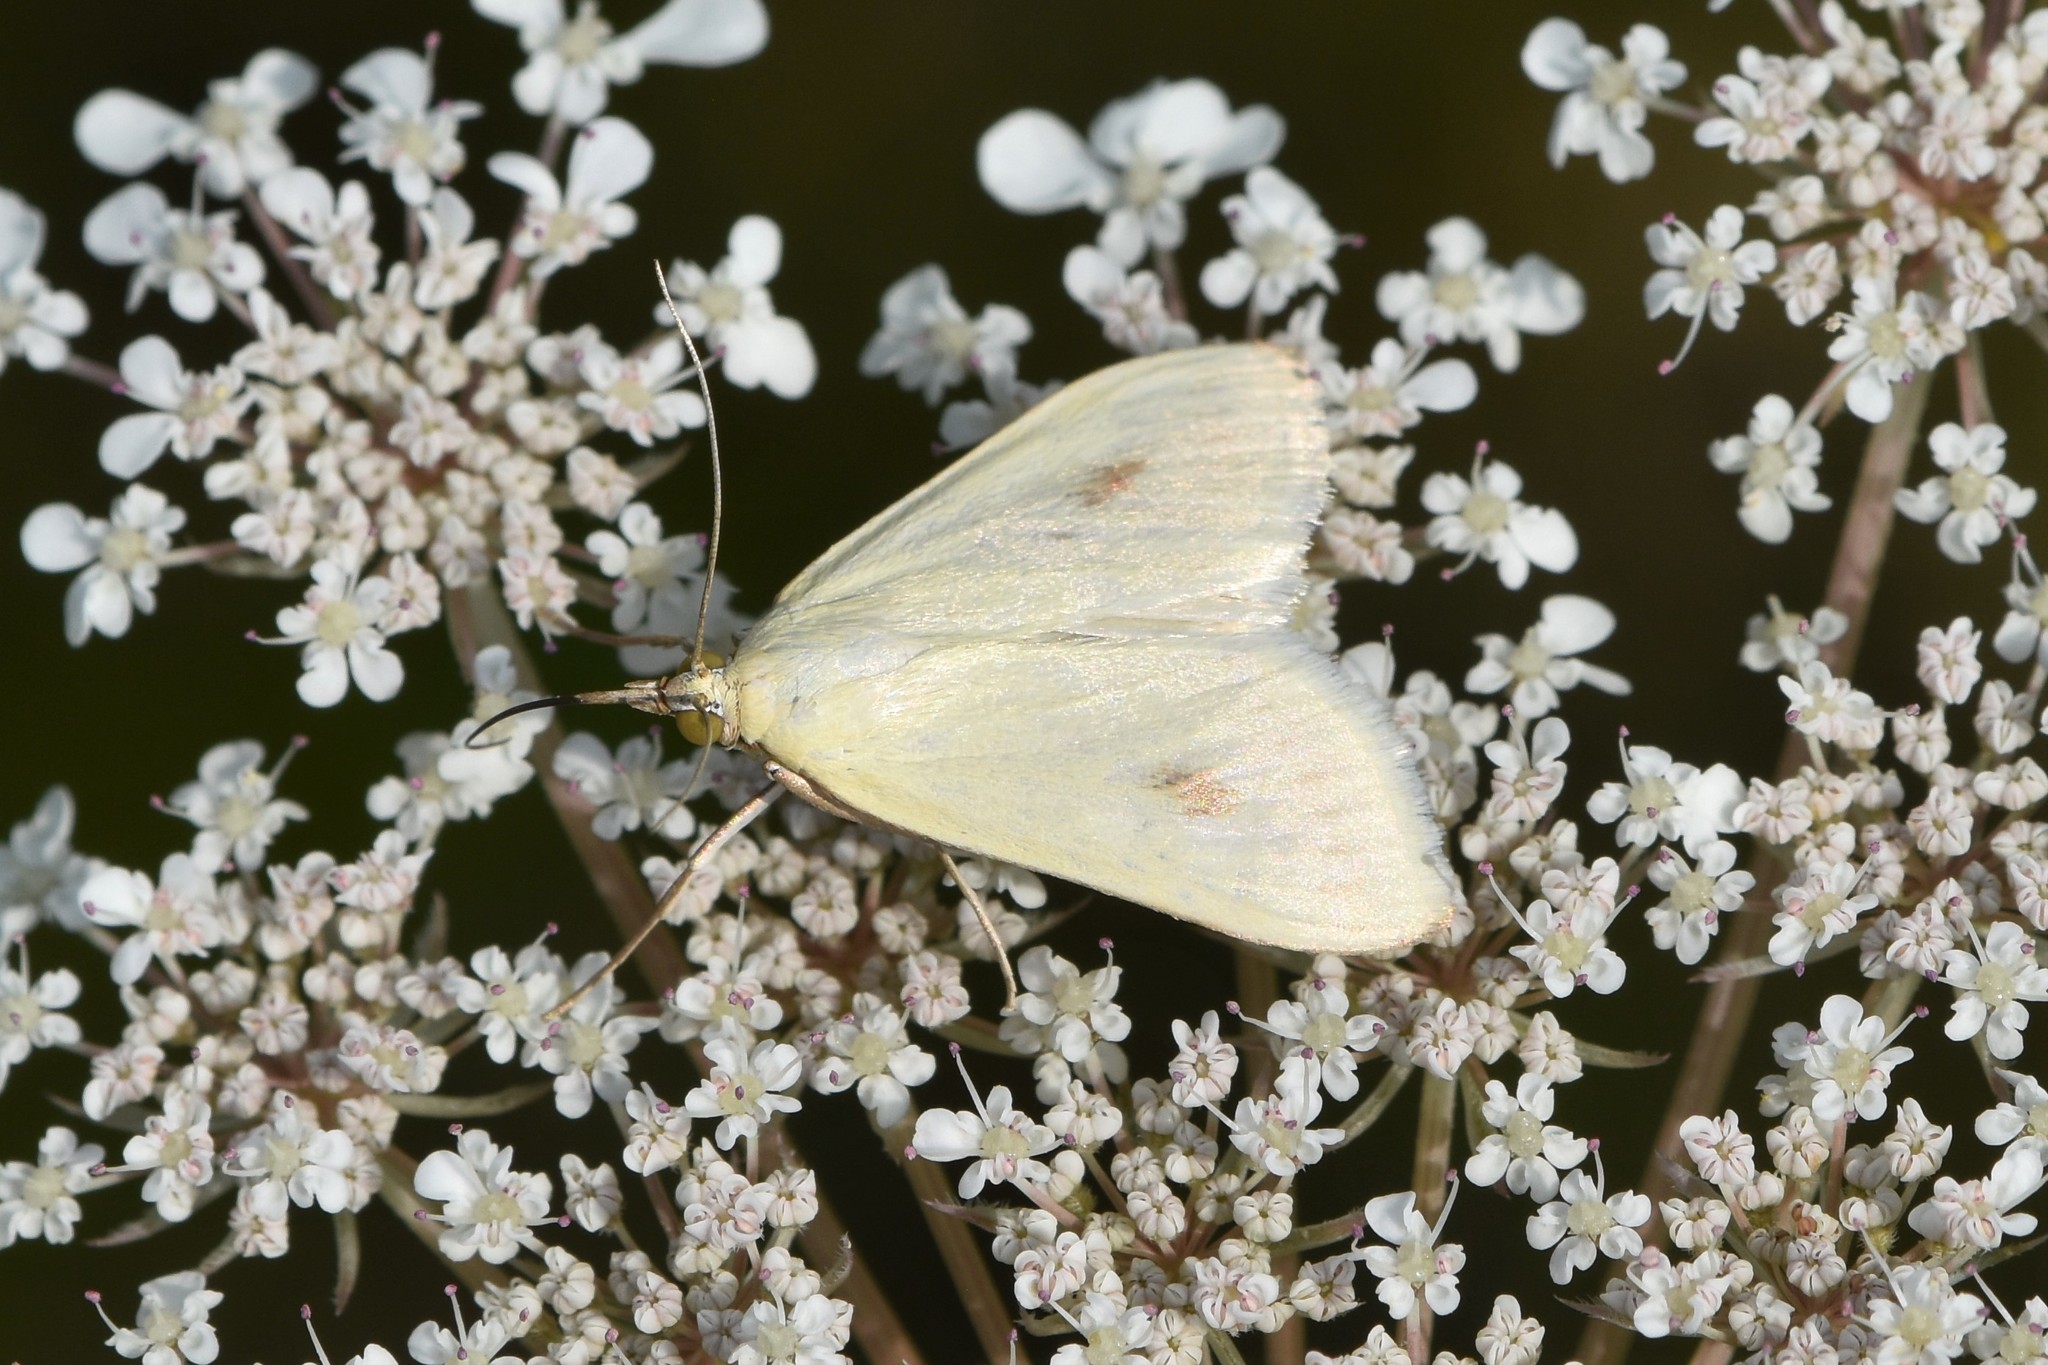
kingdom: Animalia
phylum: Arthropoda
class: Insecta
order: Lepidoptera
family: Crambidae
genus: Sitochroa
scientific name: Sitochroa palealis
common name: Greenish-yellow sitochroa moth
